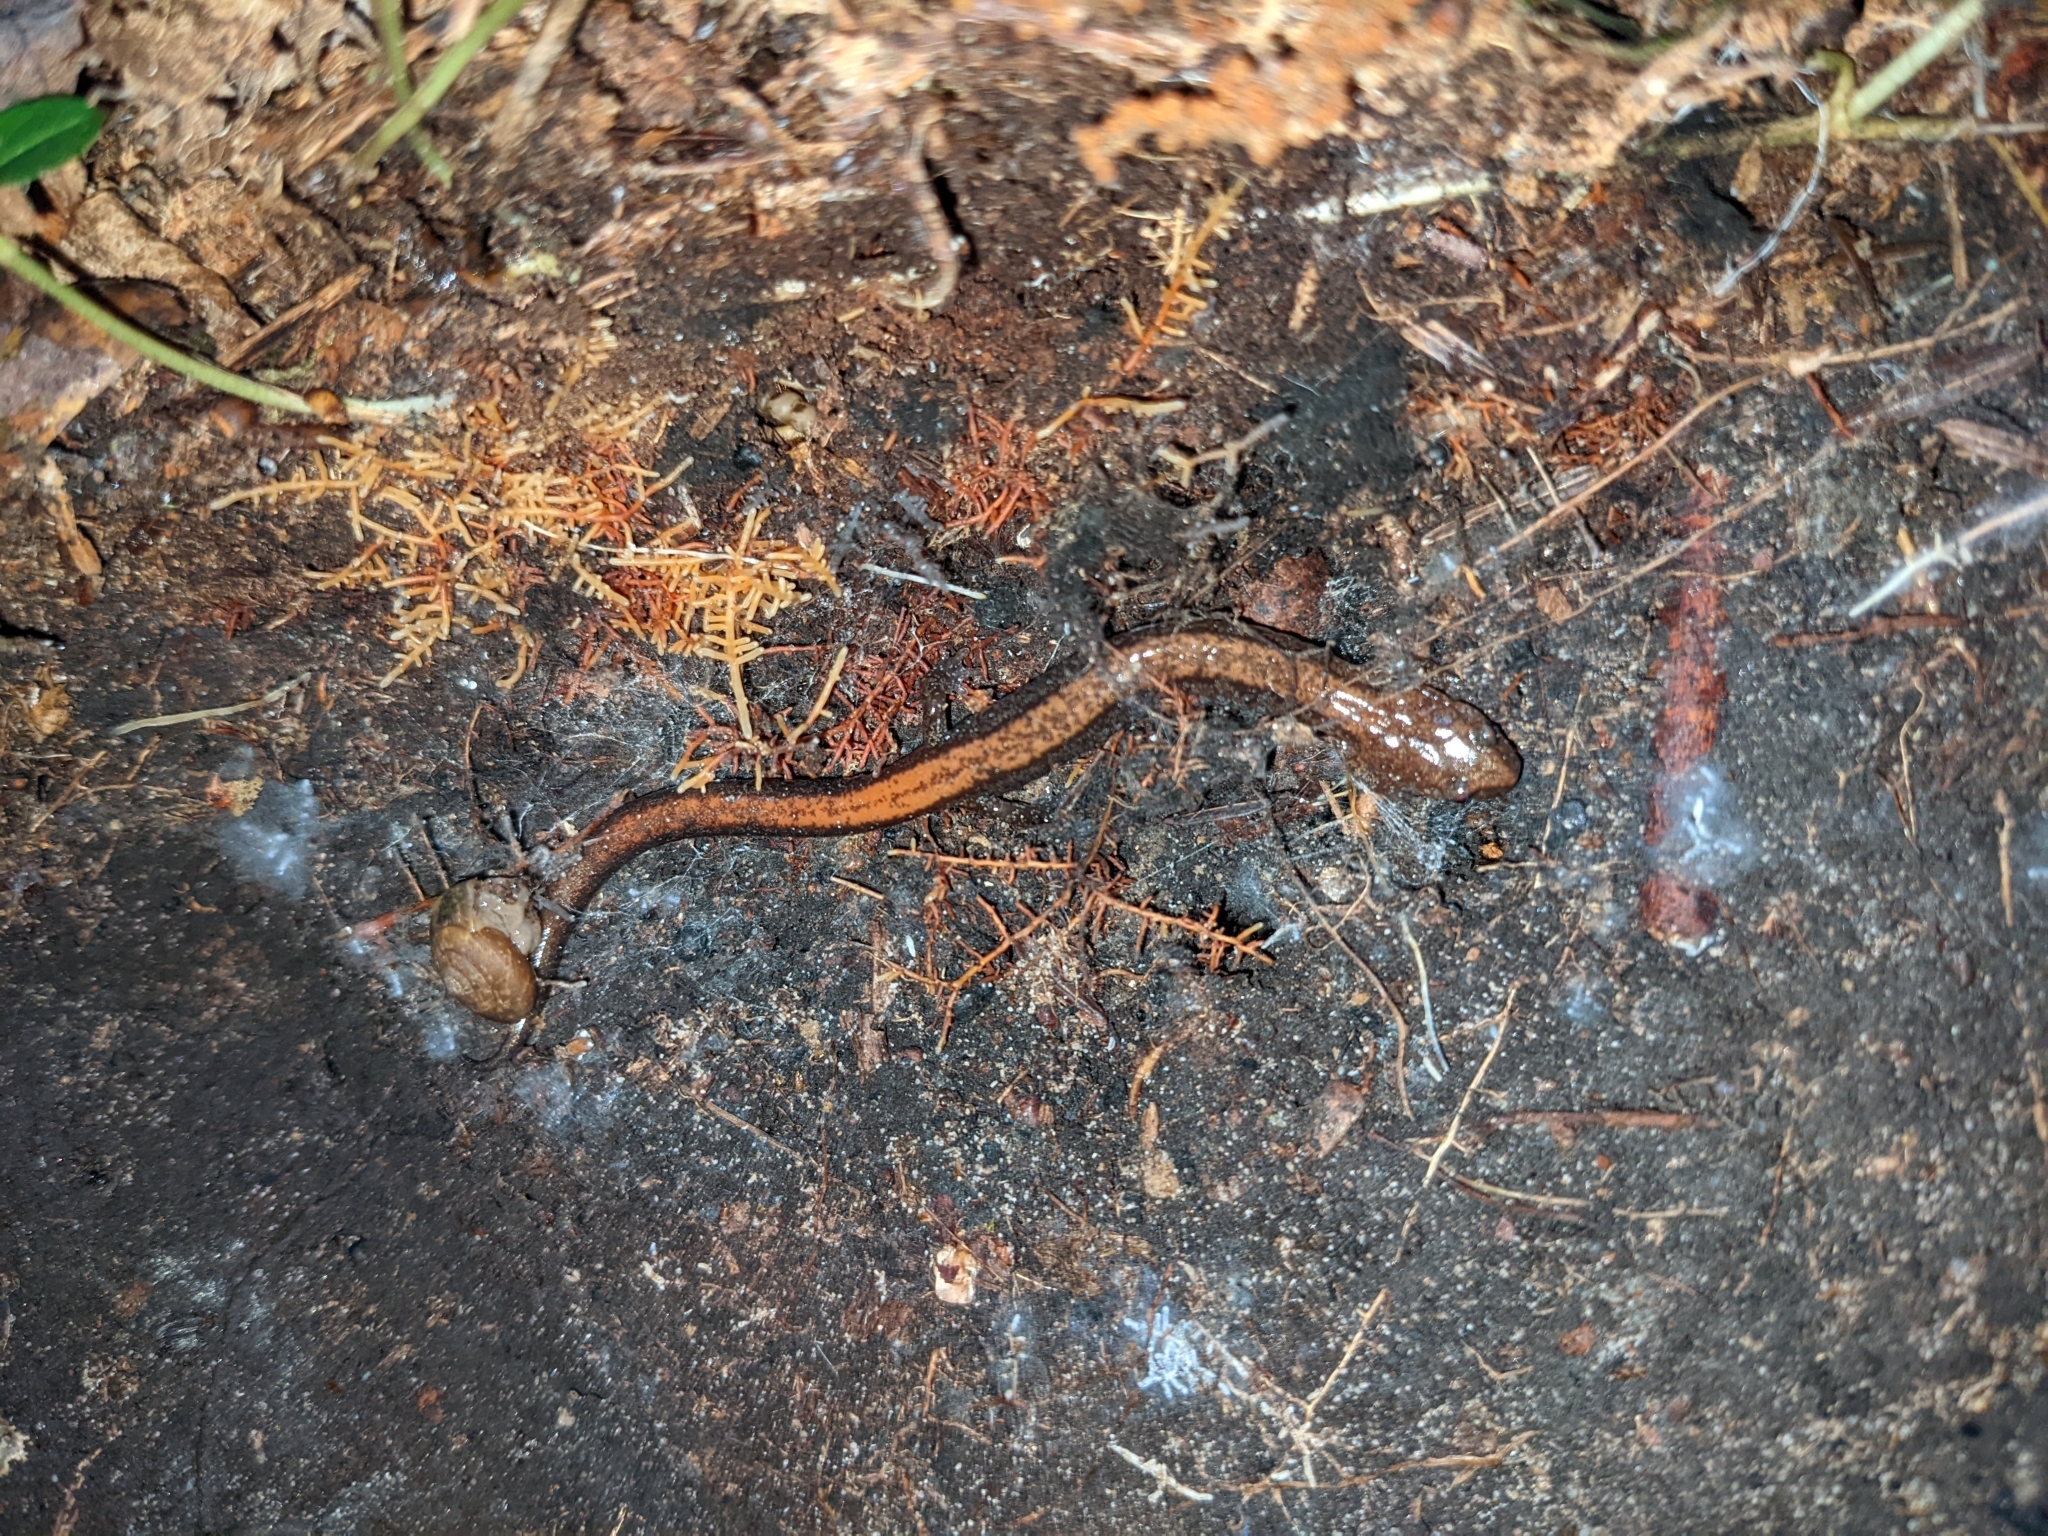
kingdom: Animalia
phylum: Chordata
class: Amphibia
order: Caudata
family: Plethodontidae
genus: Plethodon
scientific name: Plethodon cinereus
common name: Redback salamander
